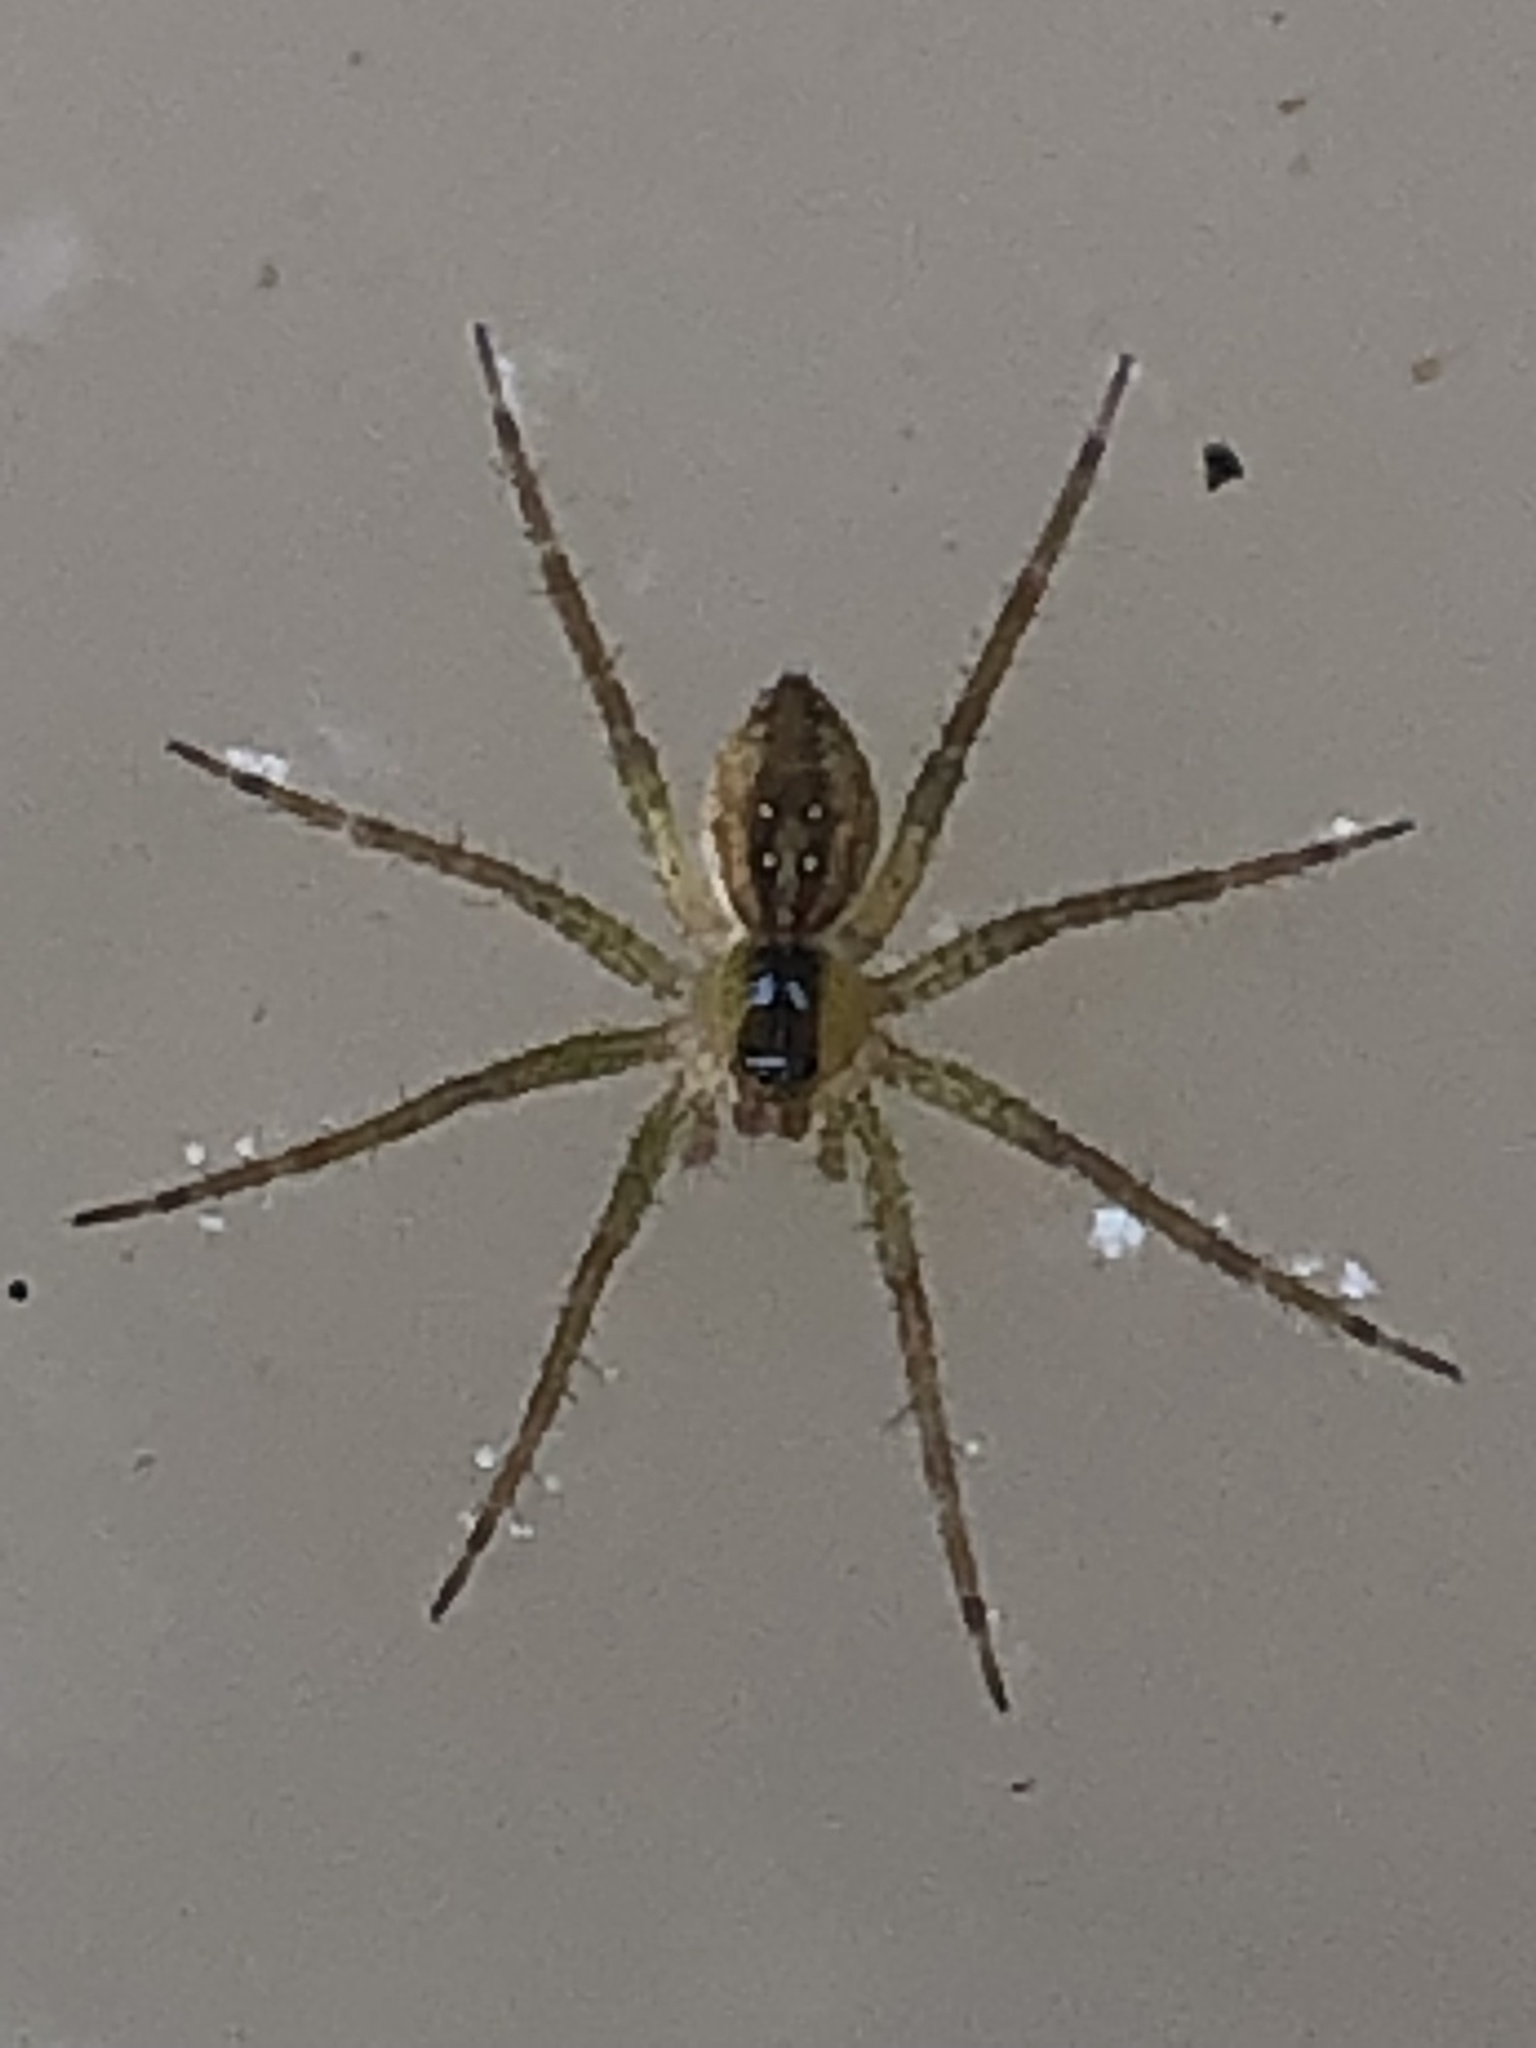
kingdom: Animalia
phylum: Arthropoda
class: Arachnida
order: Araneae
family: Pisauridae
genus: Dolomedes
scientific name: Dolomedes triton
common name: Six-spotted fishing spider
